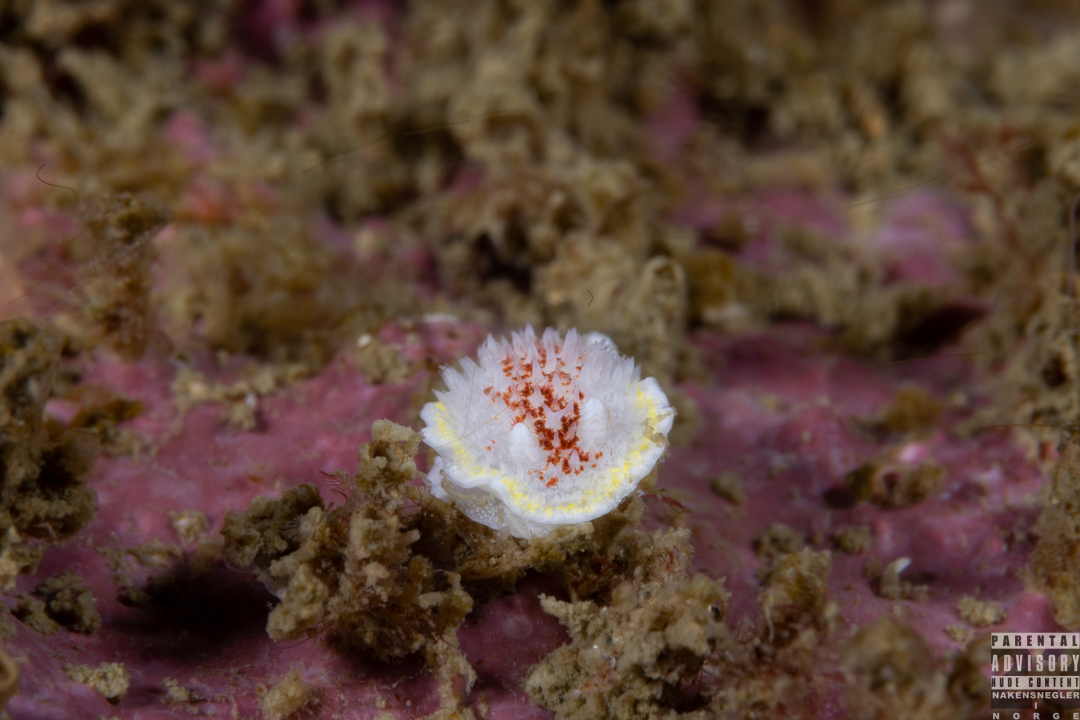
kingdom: Animalia
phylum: Mollusca
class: Gastropoda
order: Nudibranchia
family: Calycidorididae
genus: Diaphorodoris
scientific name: Diaphorodoris luteocincta
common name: Fried egg nudibranch
